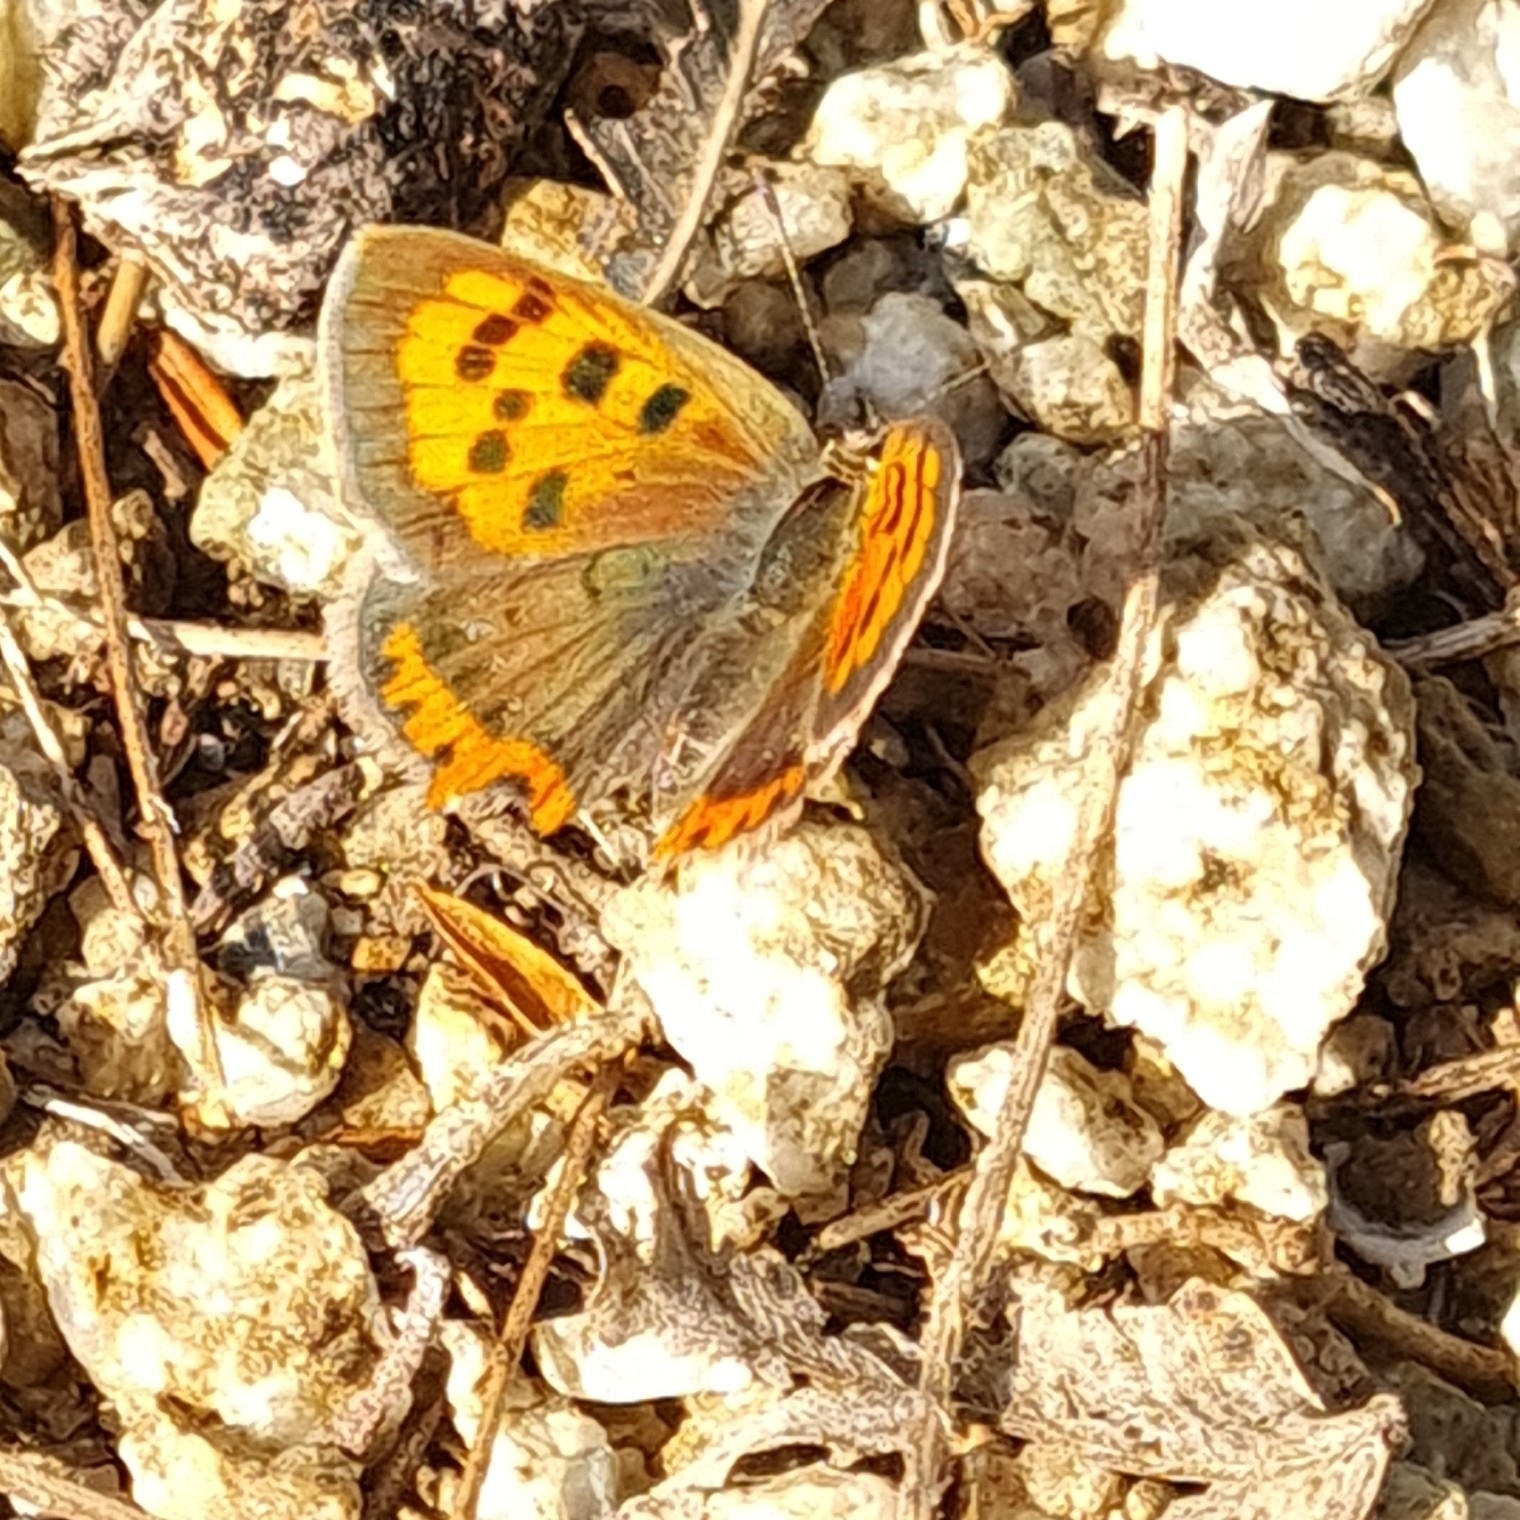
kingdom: Animalia
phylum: Arthropoda
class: Insecta
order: Lepidoptera
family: Lycaenidae
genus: Lycaena
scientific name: Lycaena phlaeas
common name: Small copper
